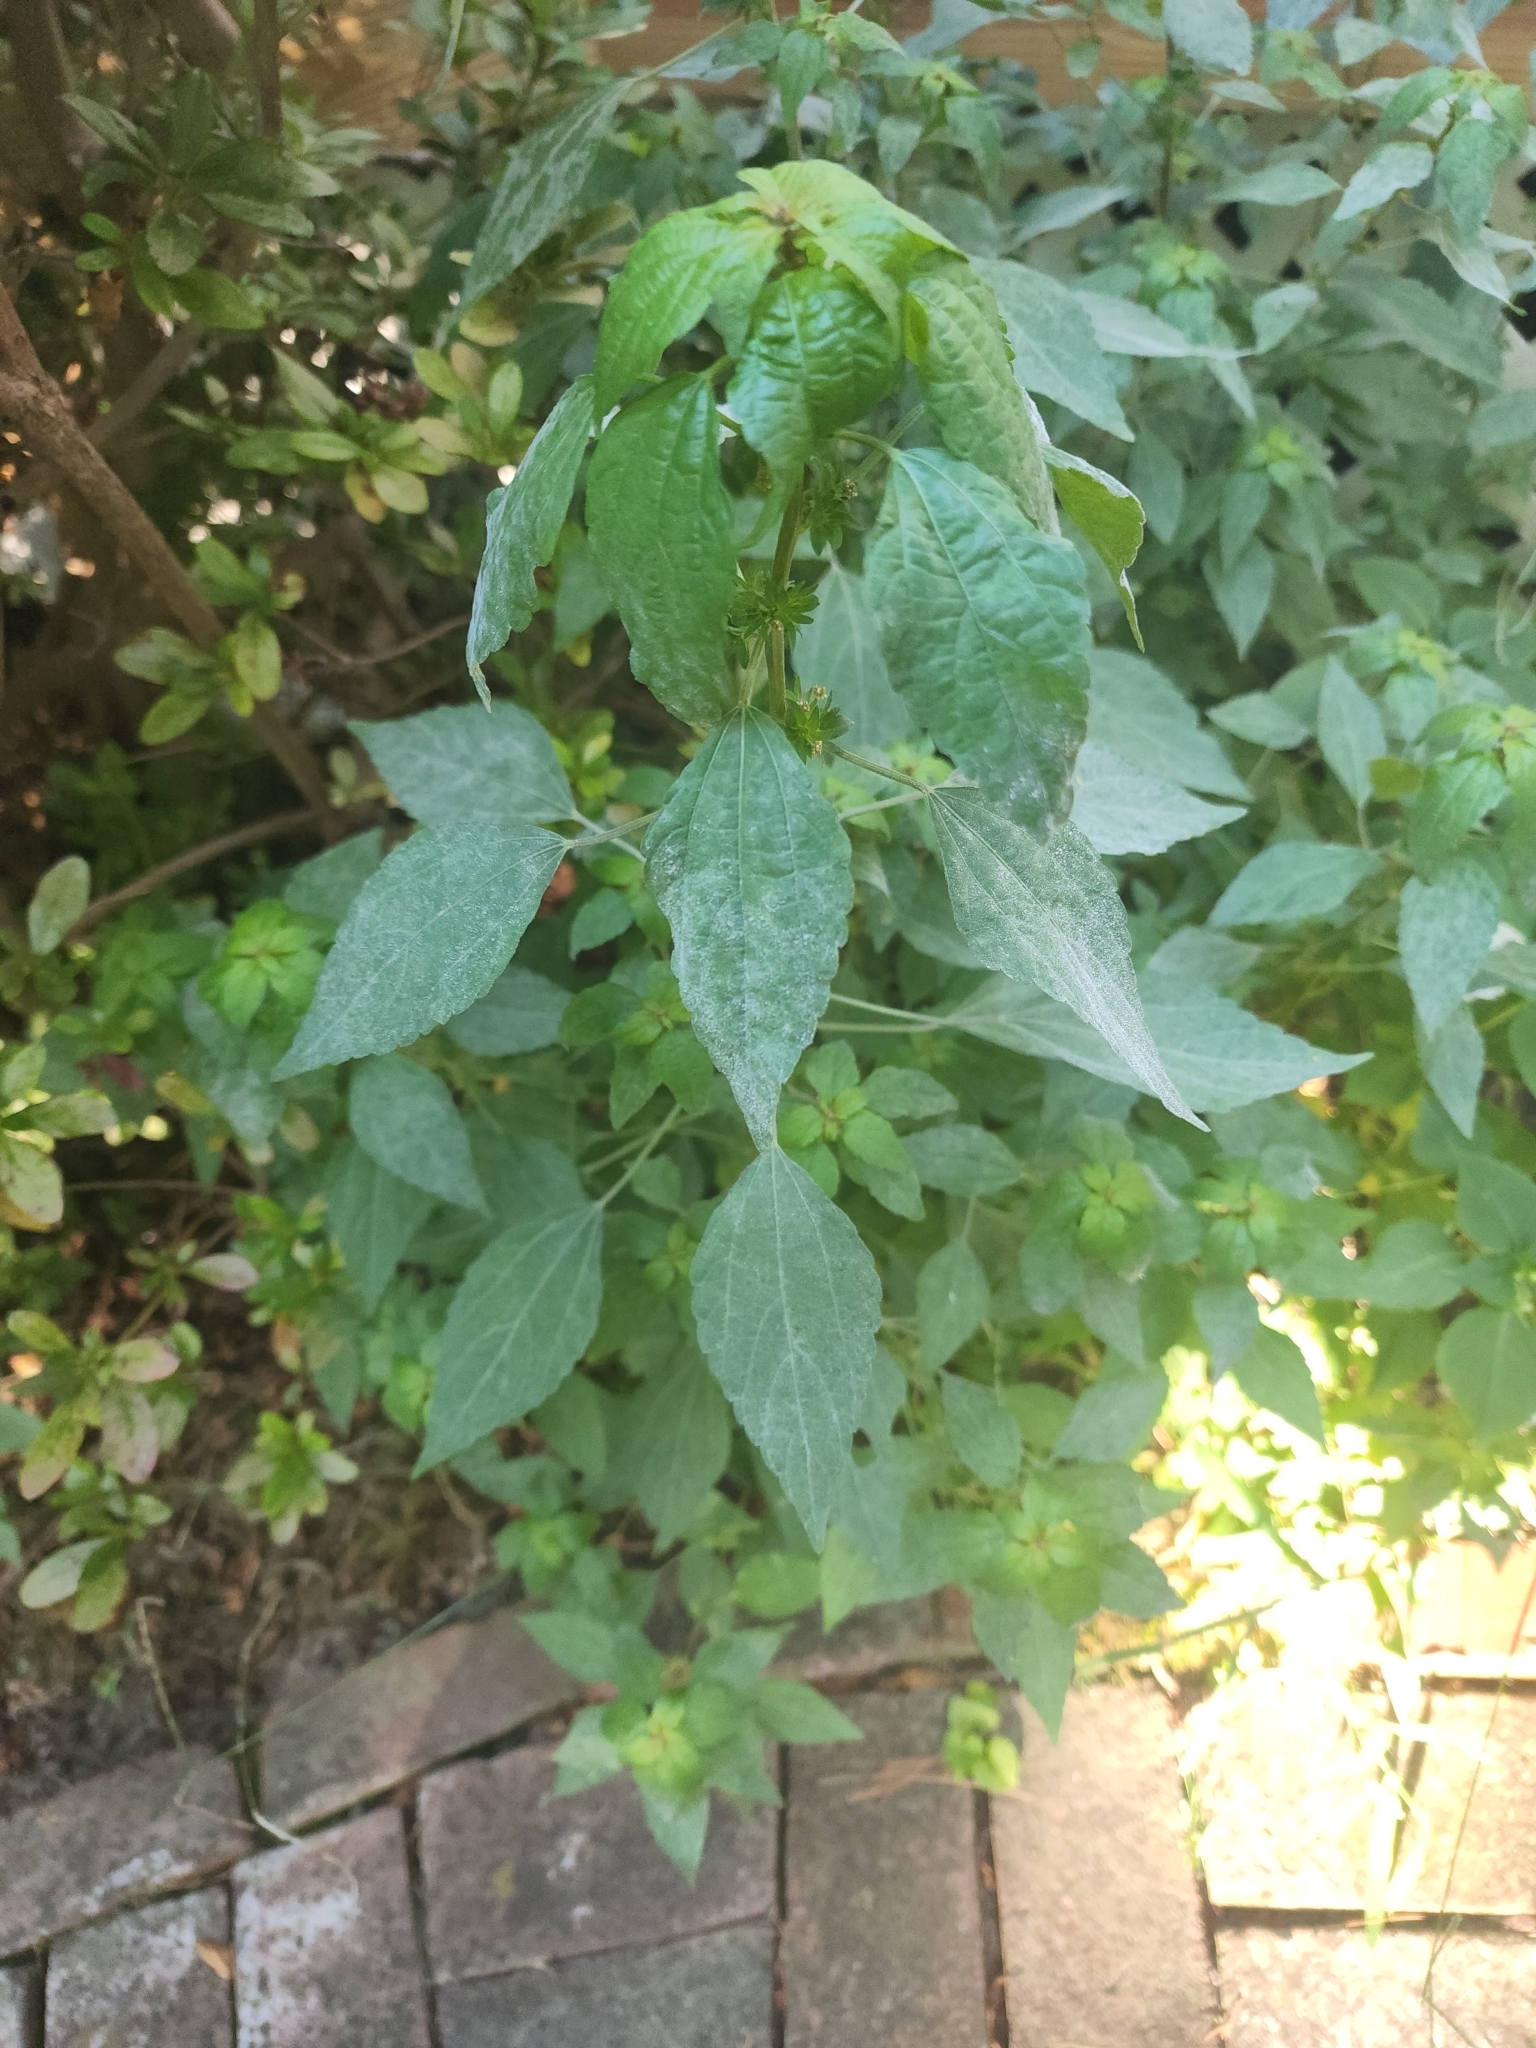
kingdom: Plantae
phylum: Tracheophyta
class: Magnoliopsida
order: Malpighiales
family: Euphorbiaceae
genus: Acalypha
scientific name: Acalypha rhomboidea
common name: Rhombic copperleaf
